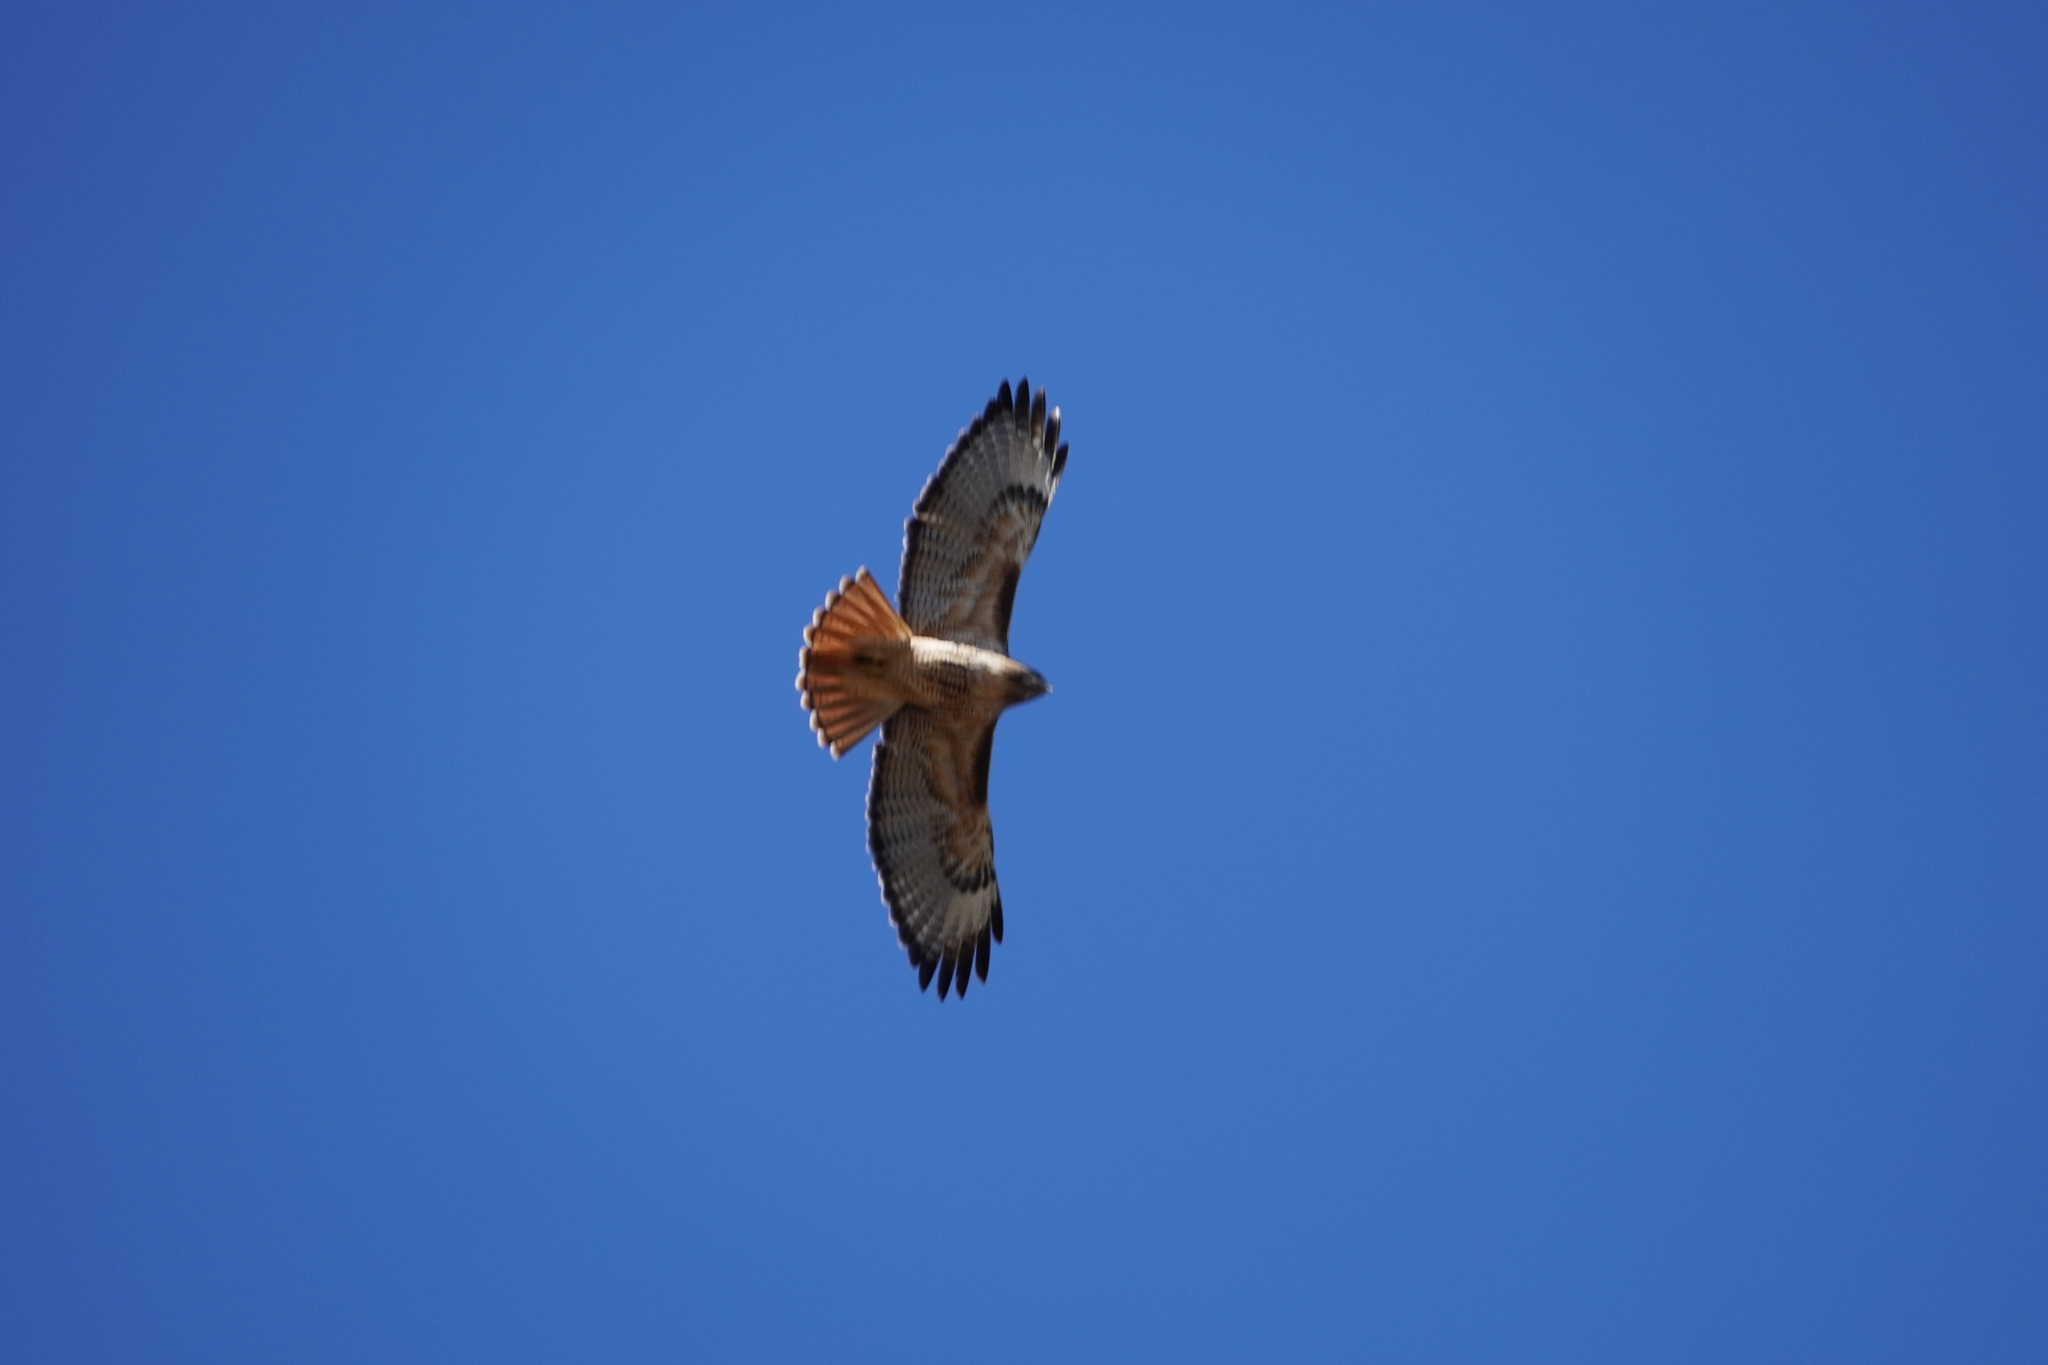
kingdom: Animalia
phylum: Chordata
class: Aves
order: Accipitriformes
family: Accipitridae
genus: Buteo
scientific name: Buteo jamaicensis
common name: Red-tailed hawk
